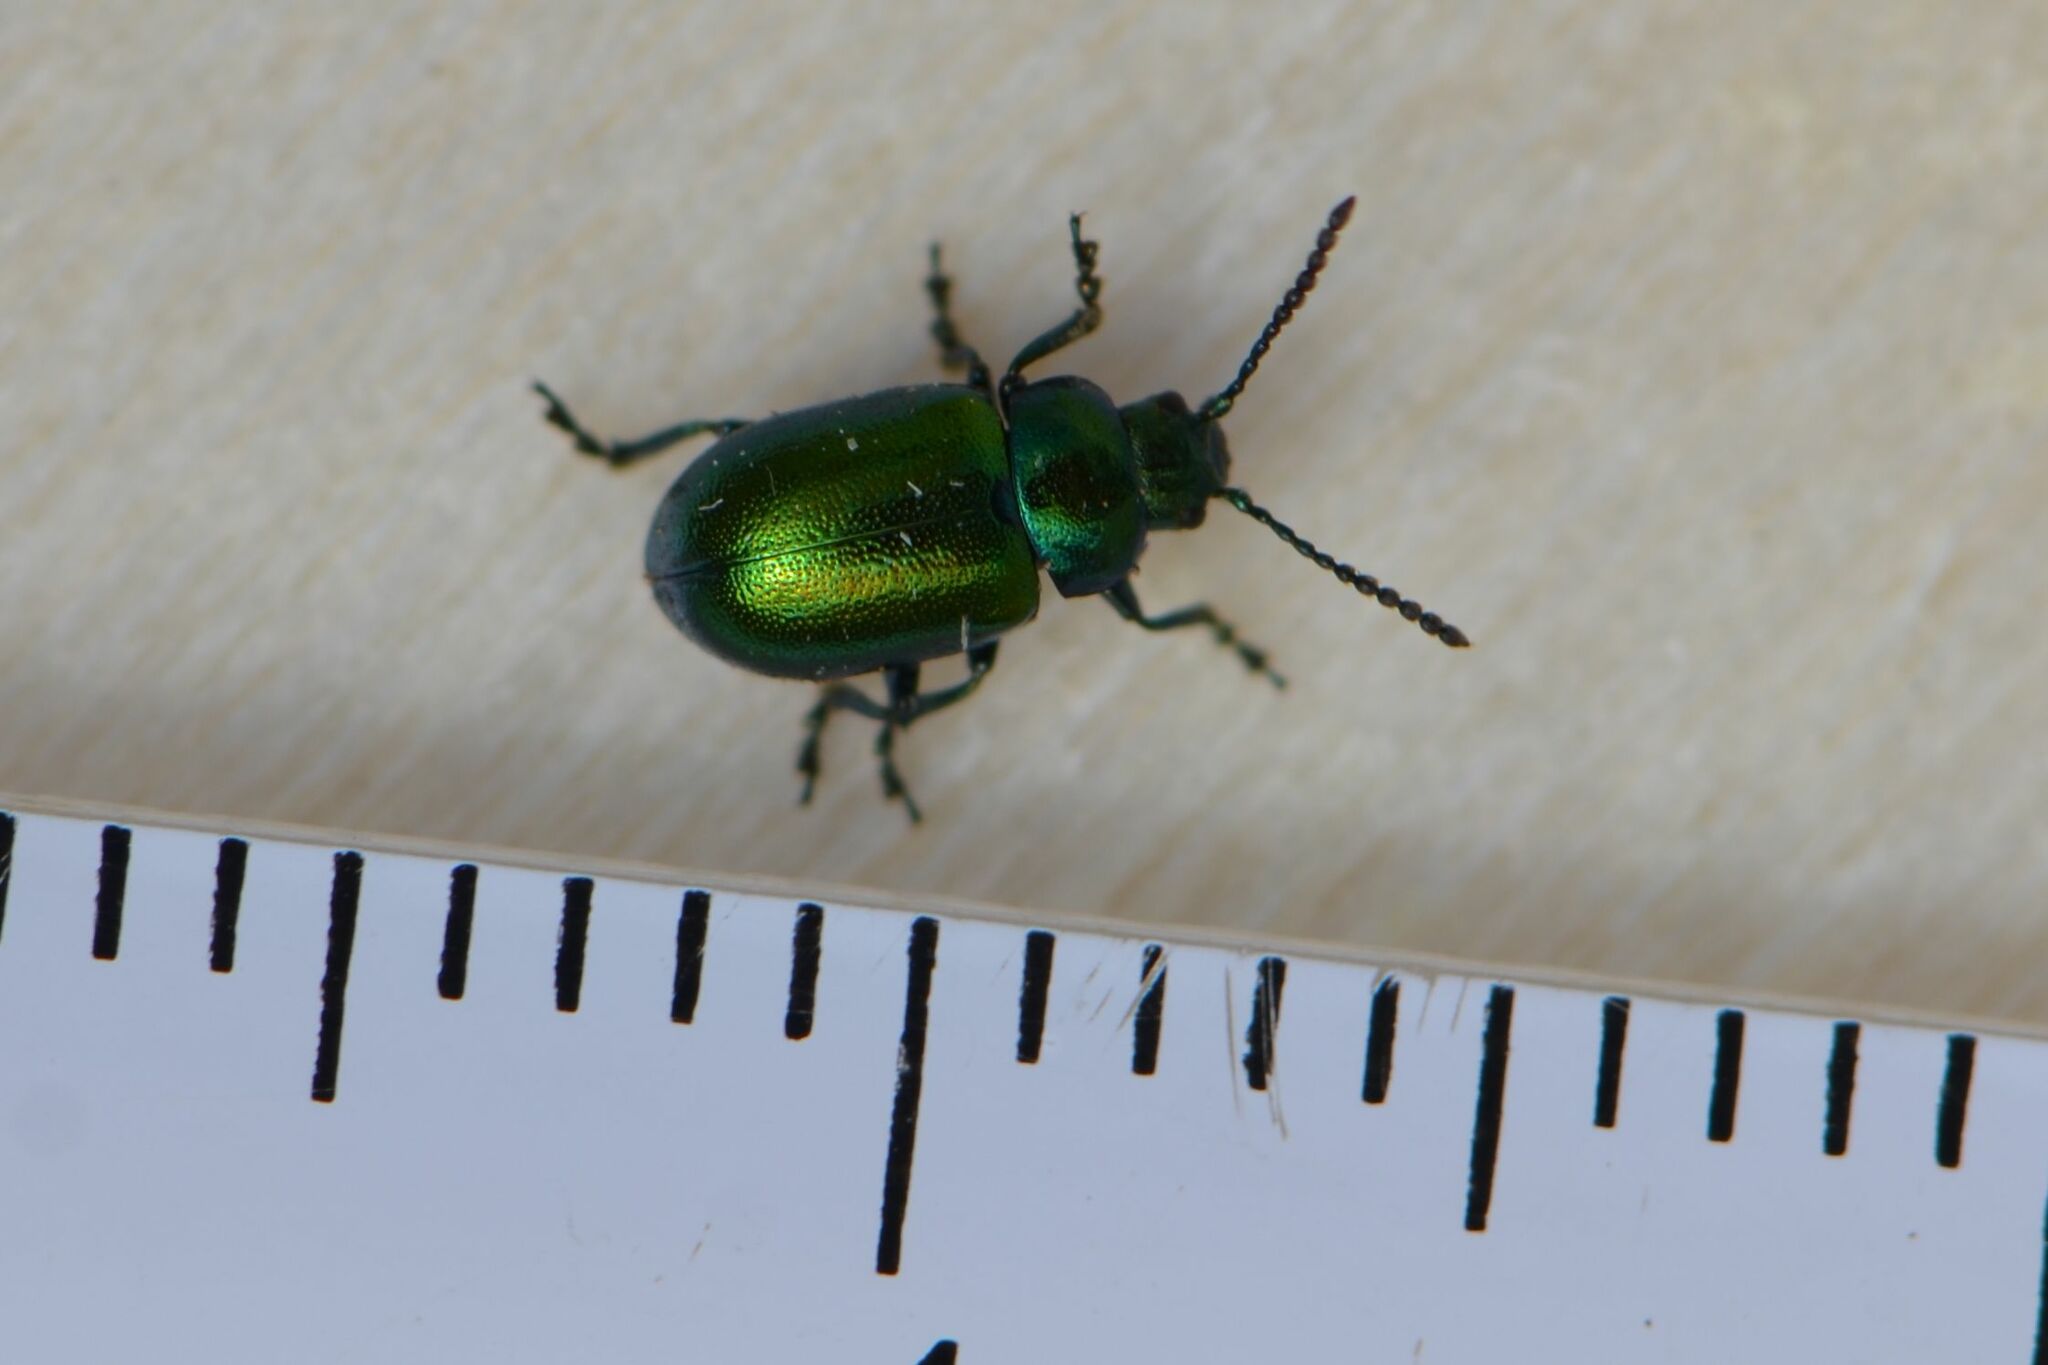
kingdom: Animalia
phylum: Arthropoda
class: Insecta
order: Coleoptera
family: Chrysomelidae
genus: Gastrophysa
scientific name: Gastrophysa viridula
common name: Green dock beetle
